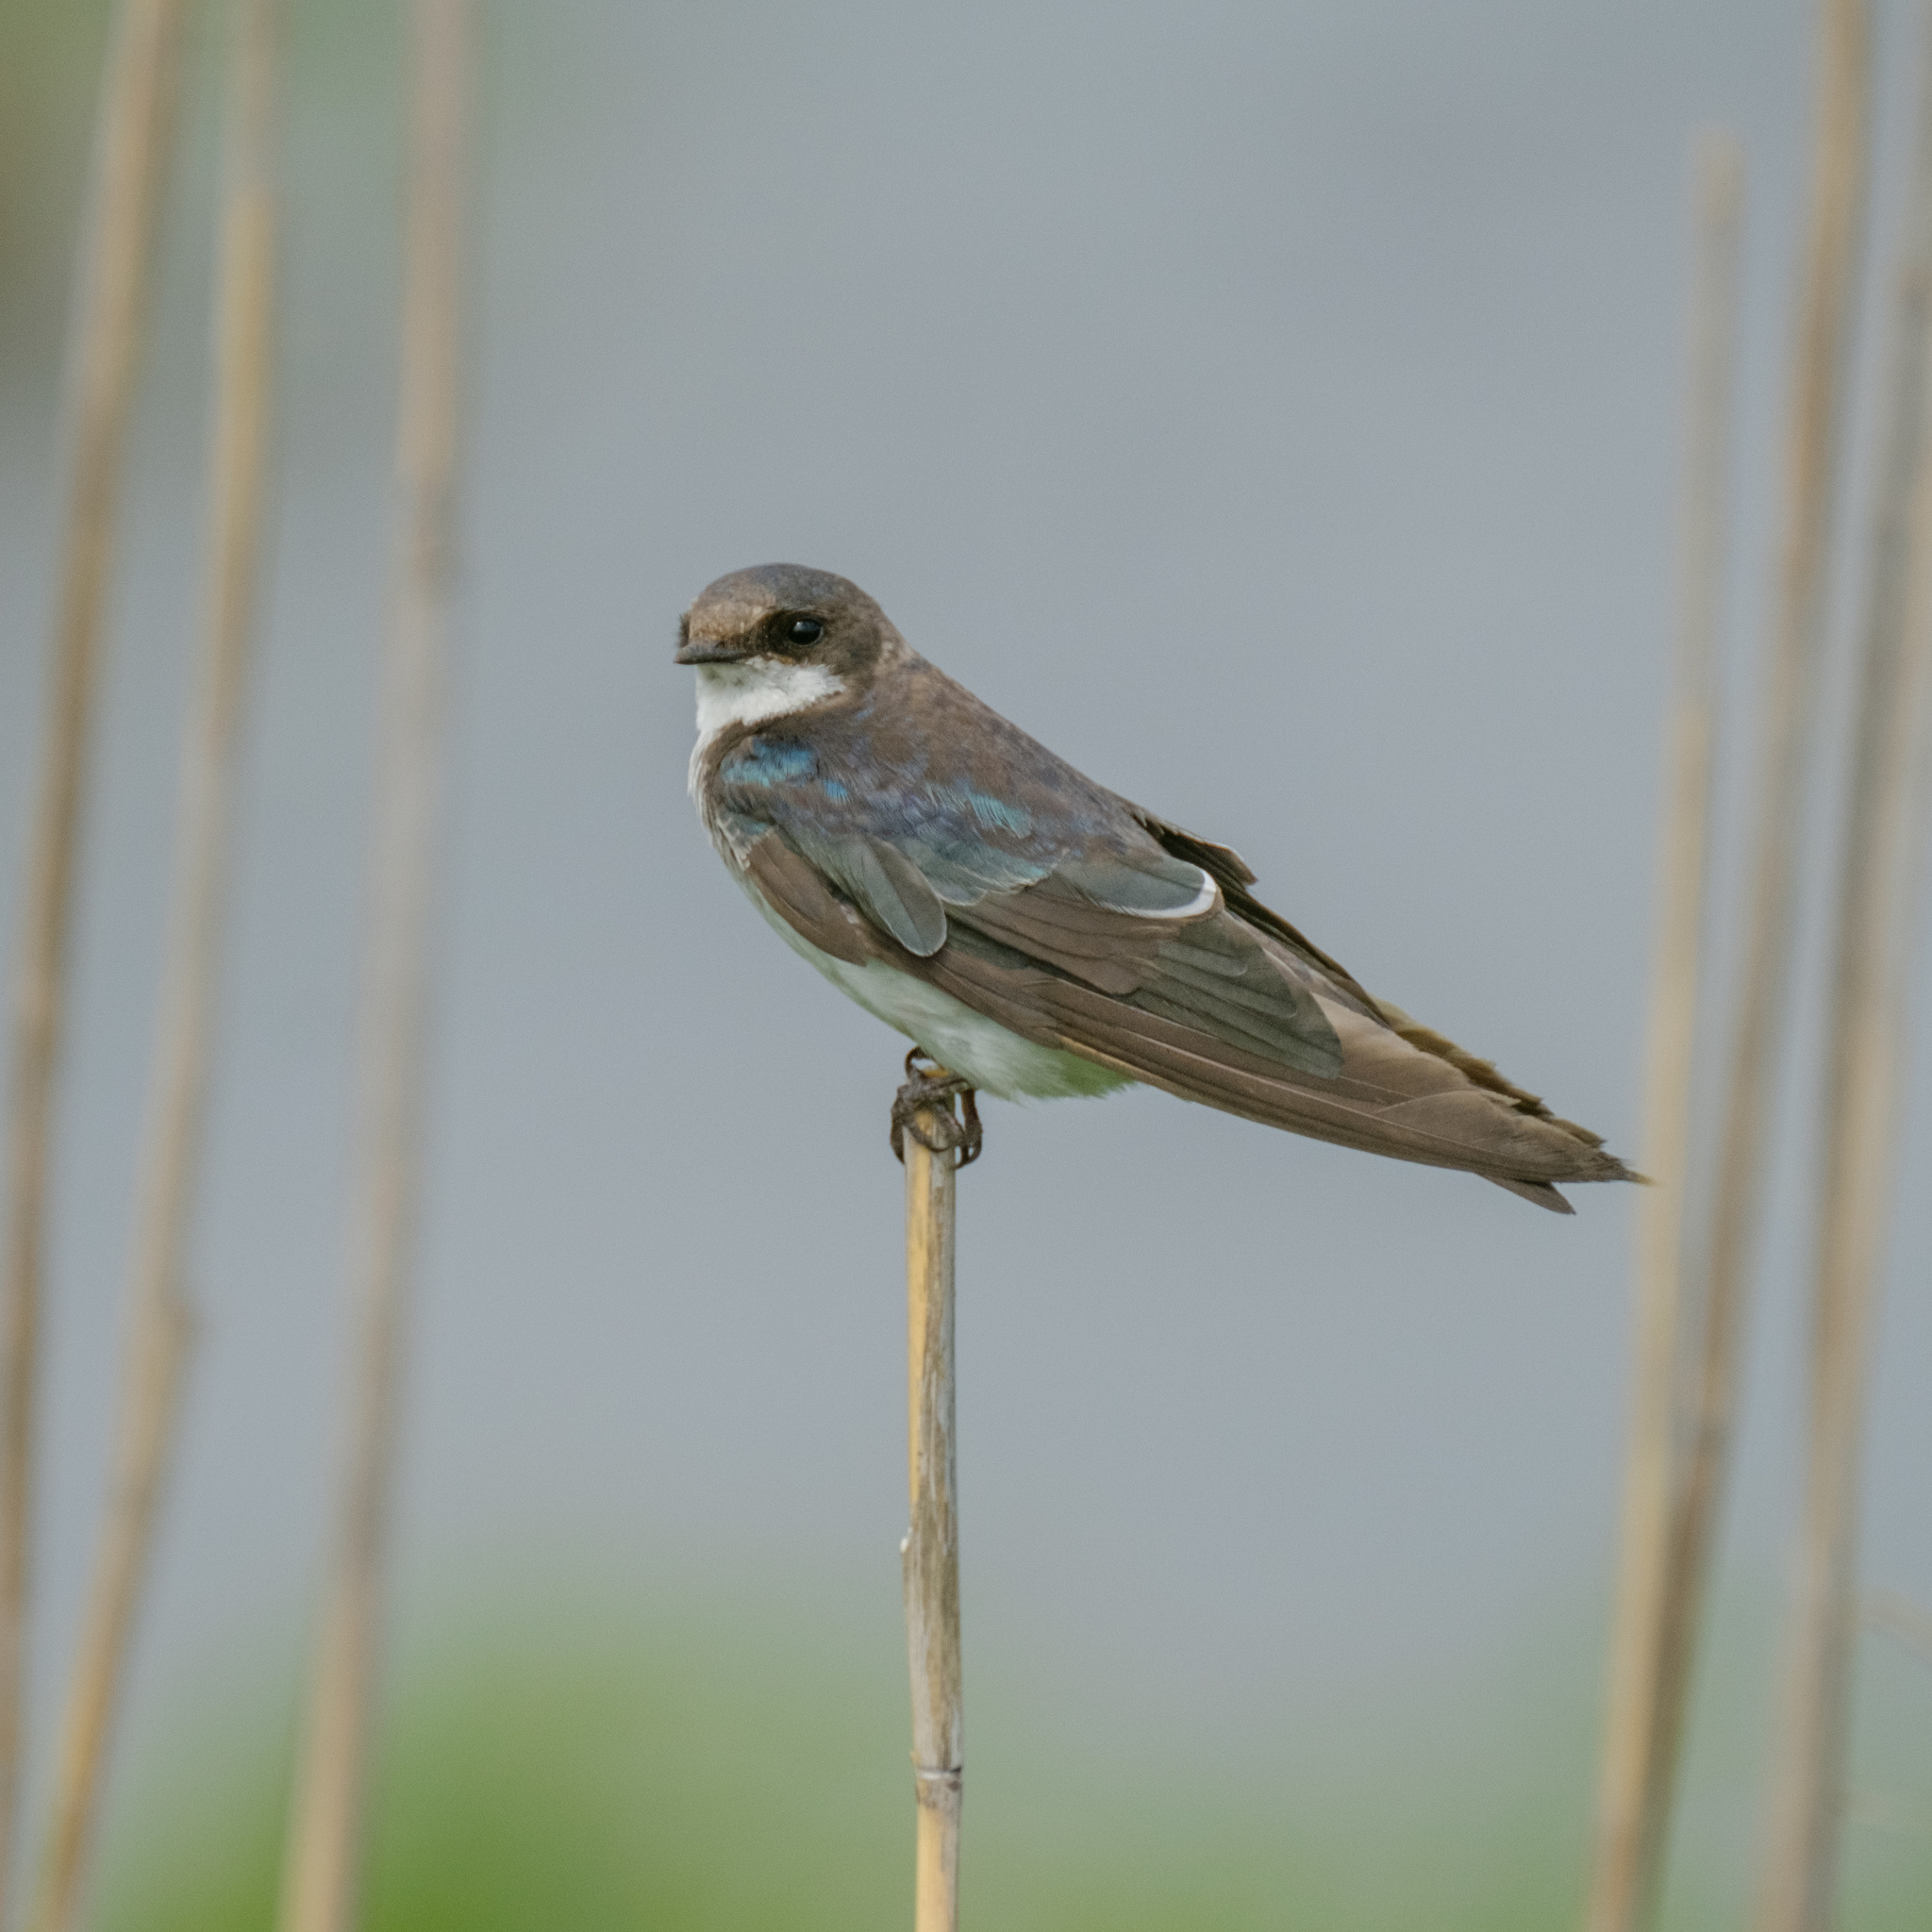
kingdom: Animalia
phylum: Chordata
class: Aves
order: Passeriformes
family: Hirundinidae
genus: Tachycineta
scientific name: Tachycineta bicolor
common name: Tree swallow
